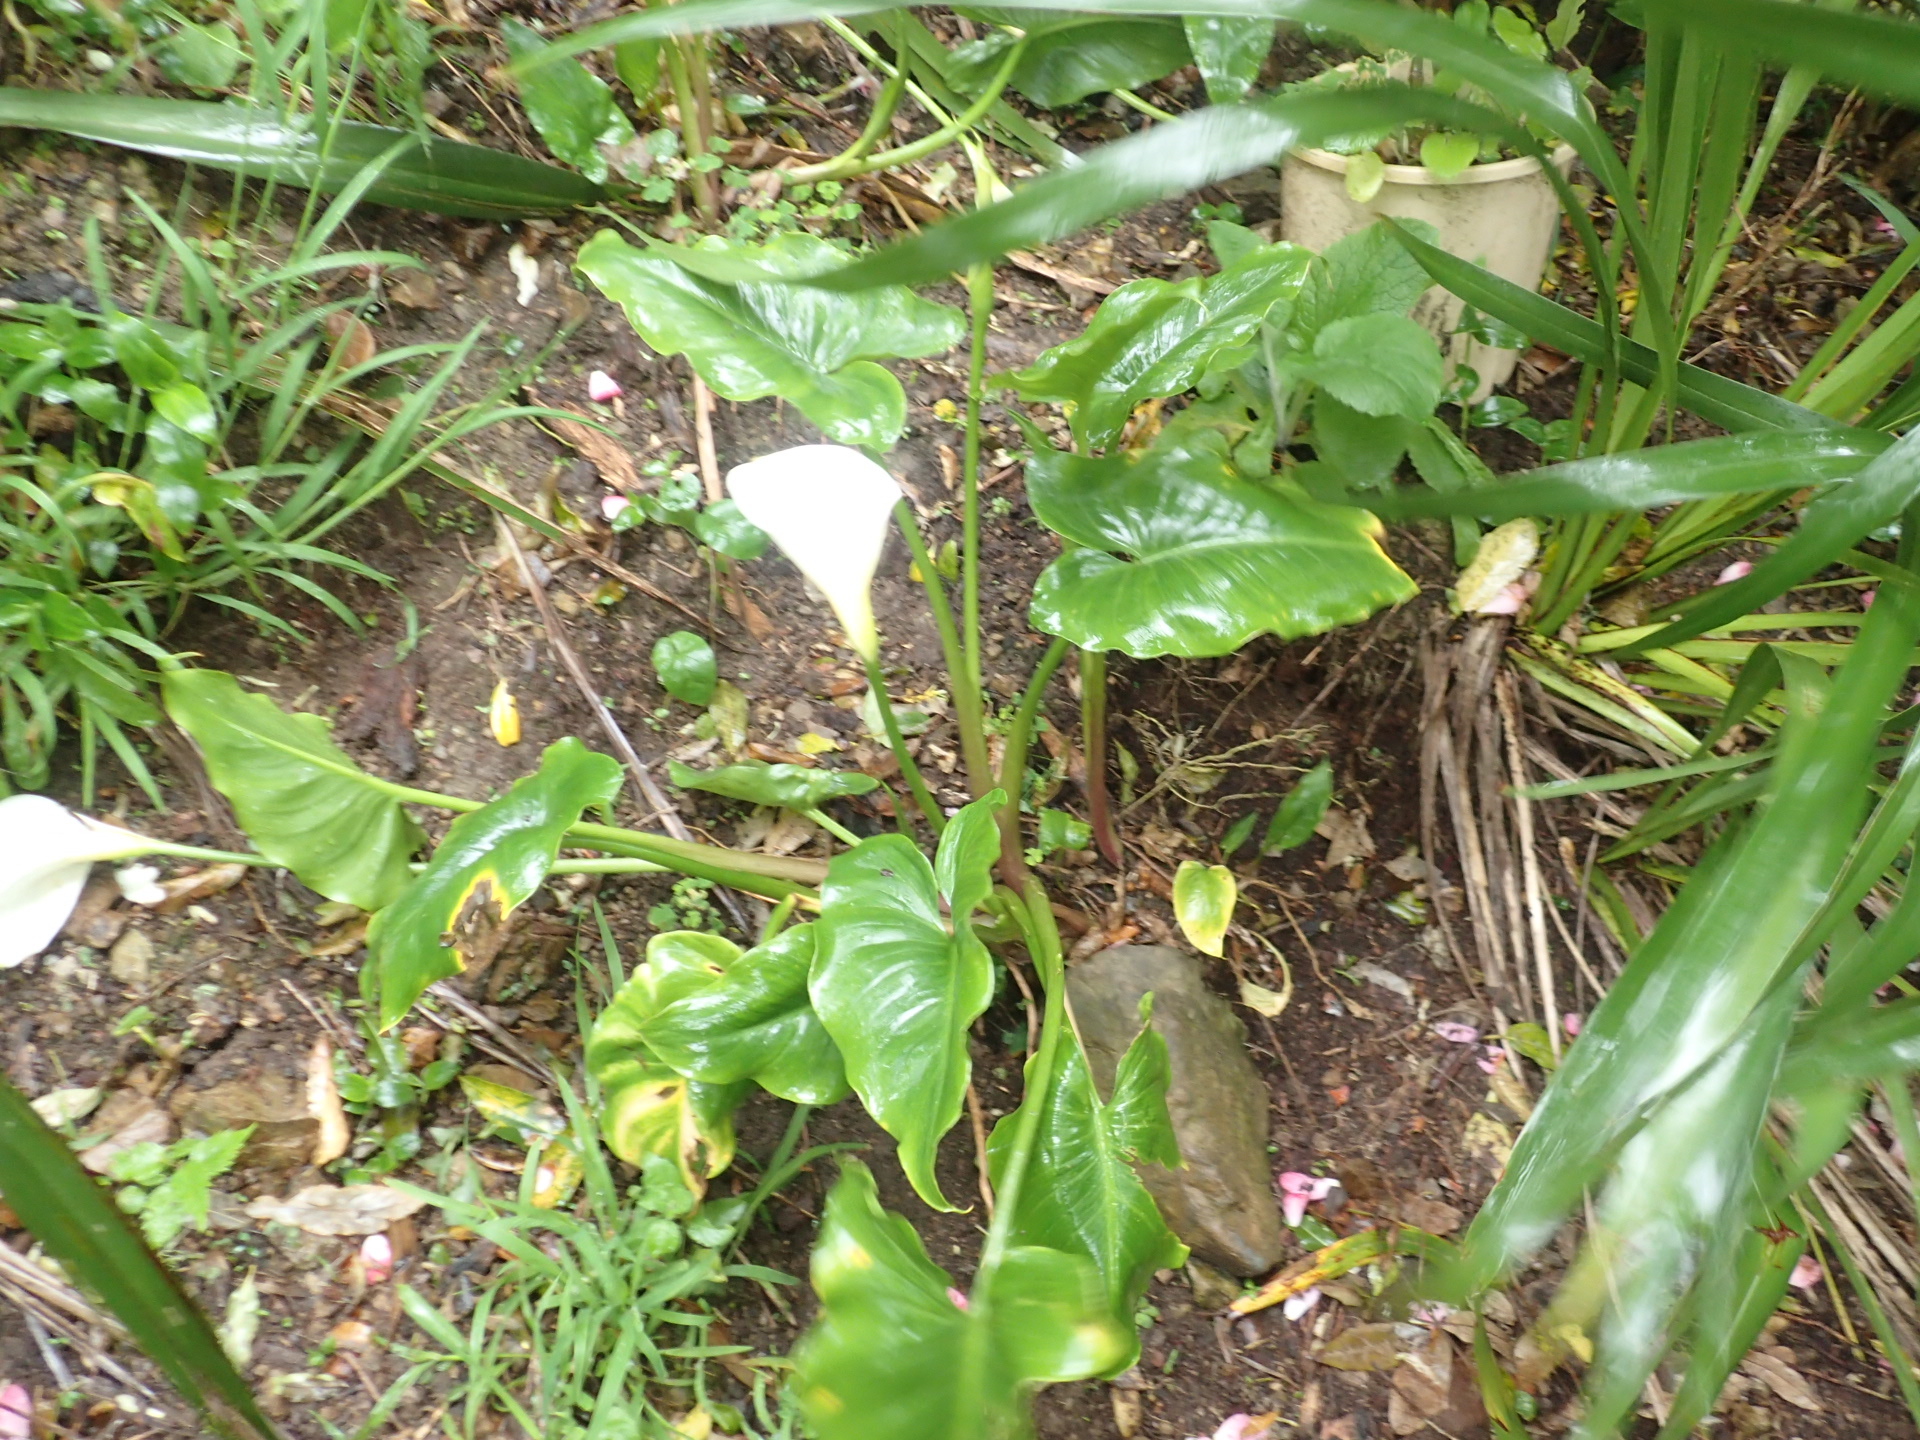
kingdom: Plantae
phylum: Tracheophyta
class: Liliopsida
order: Alismatales
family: Araceae
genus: Zantedeschia
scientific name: Zantedeschia aethiopica
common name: Altar-lily
